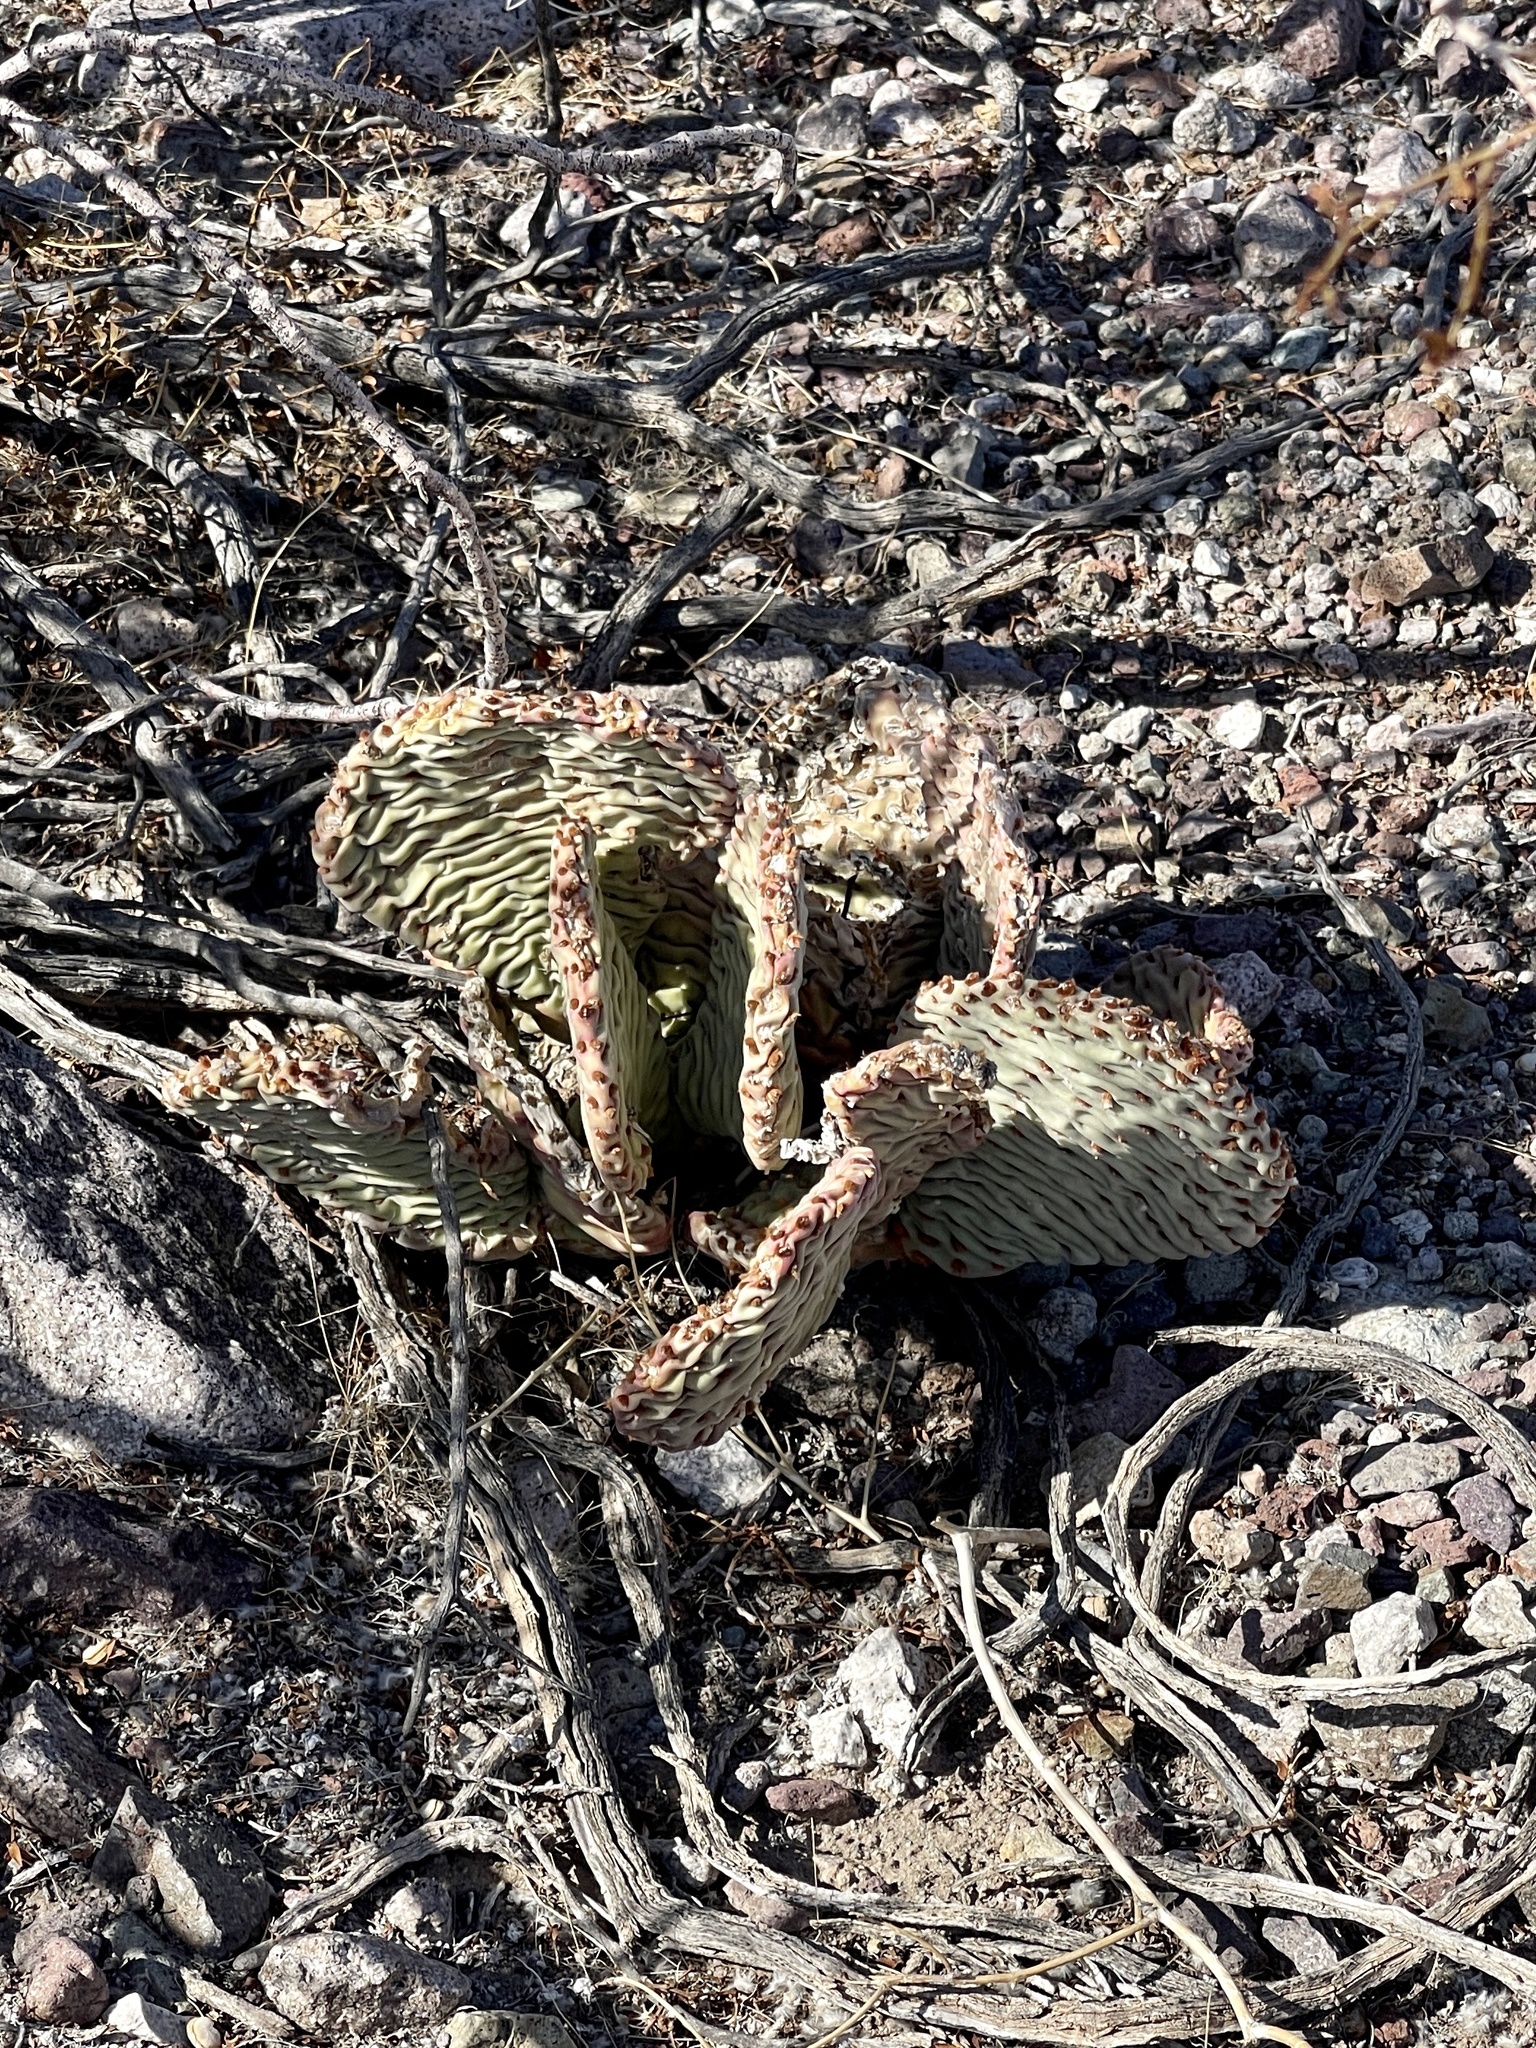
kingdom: Plantae
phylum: Tracheophyta
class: Magnoliopsida
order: Caryophyllales
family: Cactaceae
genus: Opuntia
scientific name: Opuntia basilaris
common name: Beavertail prickly-pear
